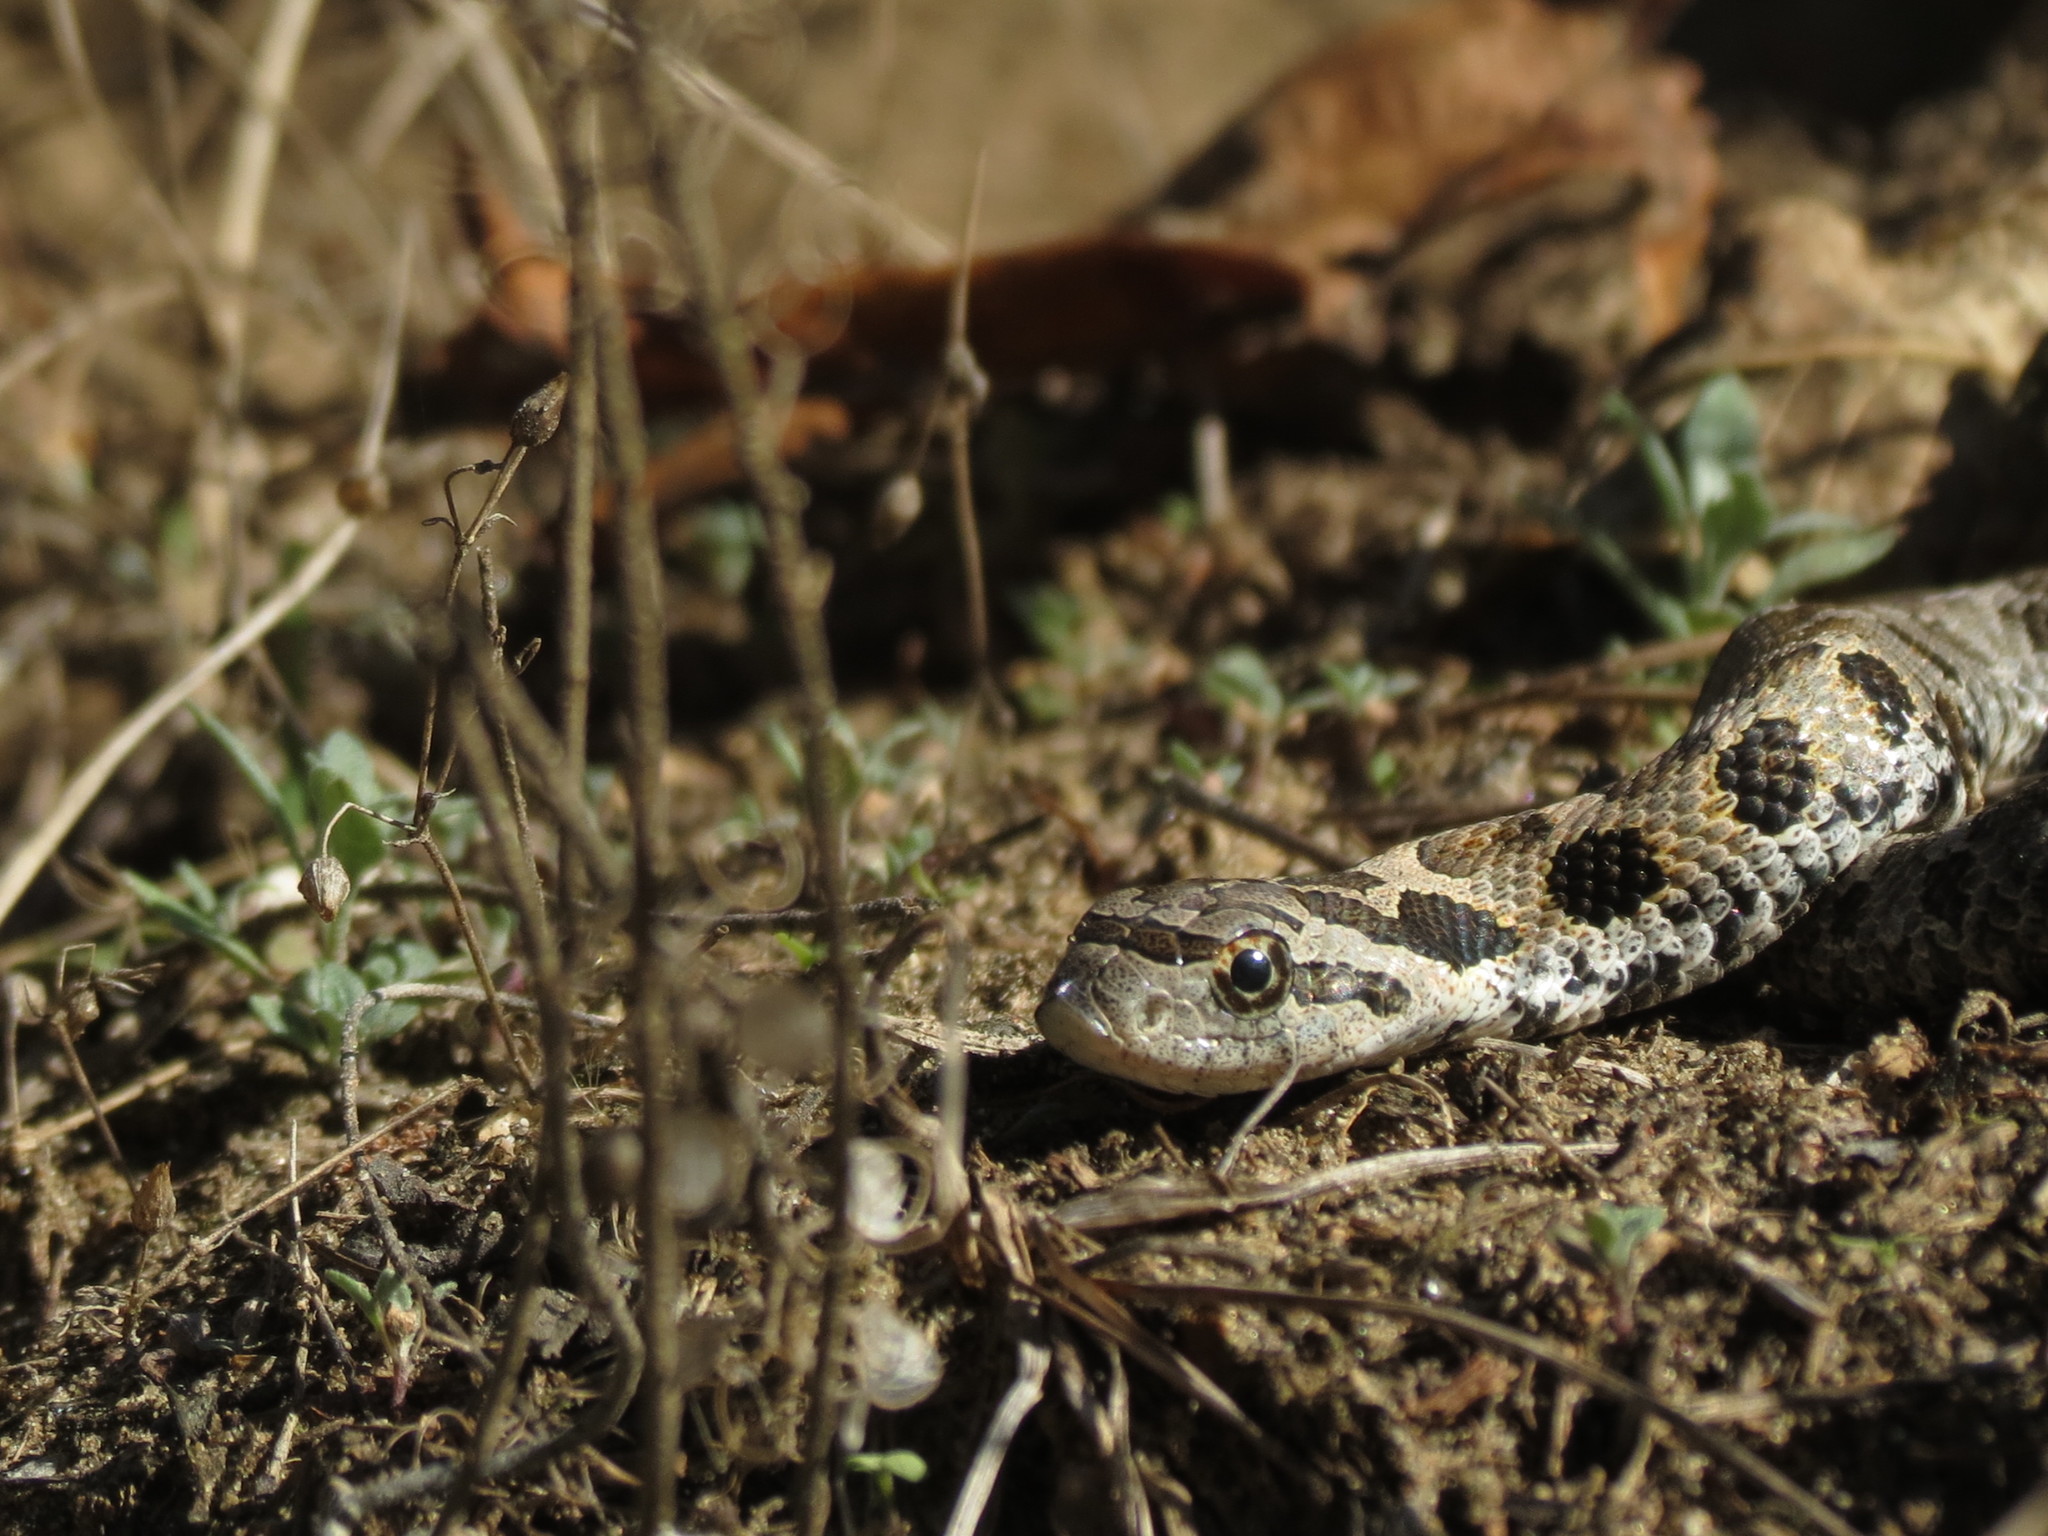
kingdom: Animalia
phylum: Chordata
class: Squamata
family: Colubridae
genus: Heterodon
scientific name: Heterodon platirhinos
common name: Eastern hognose snake
